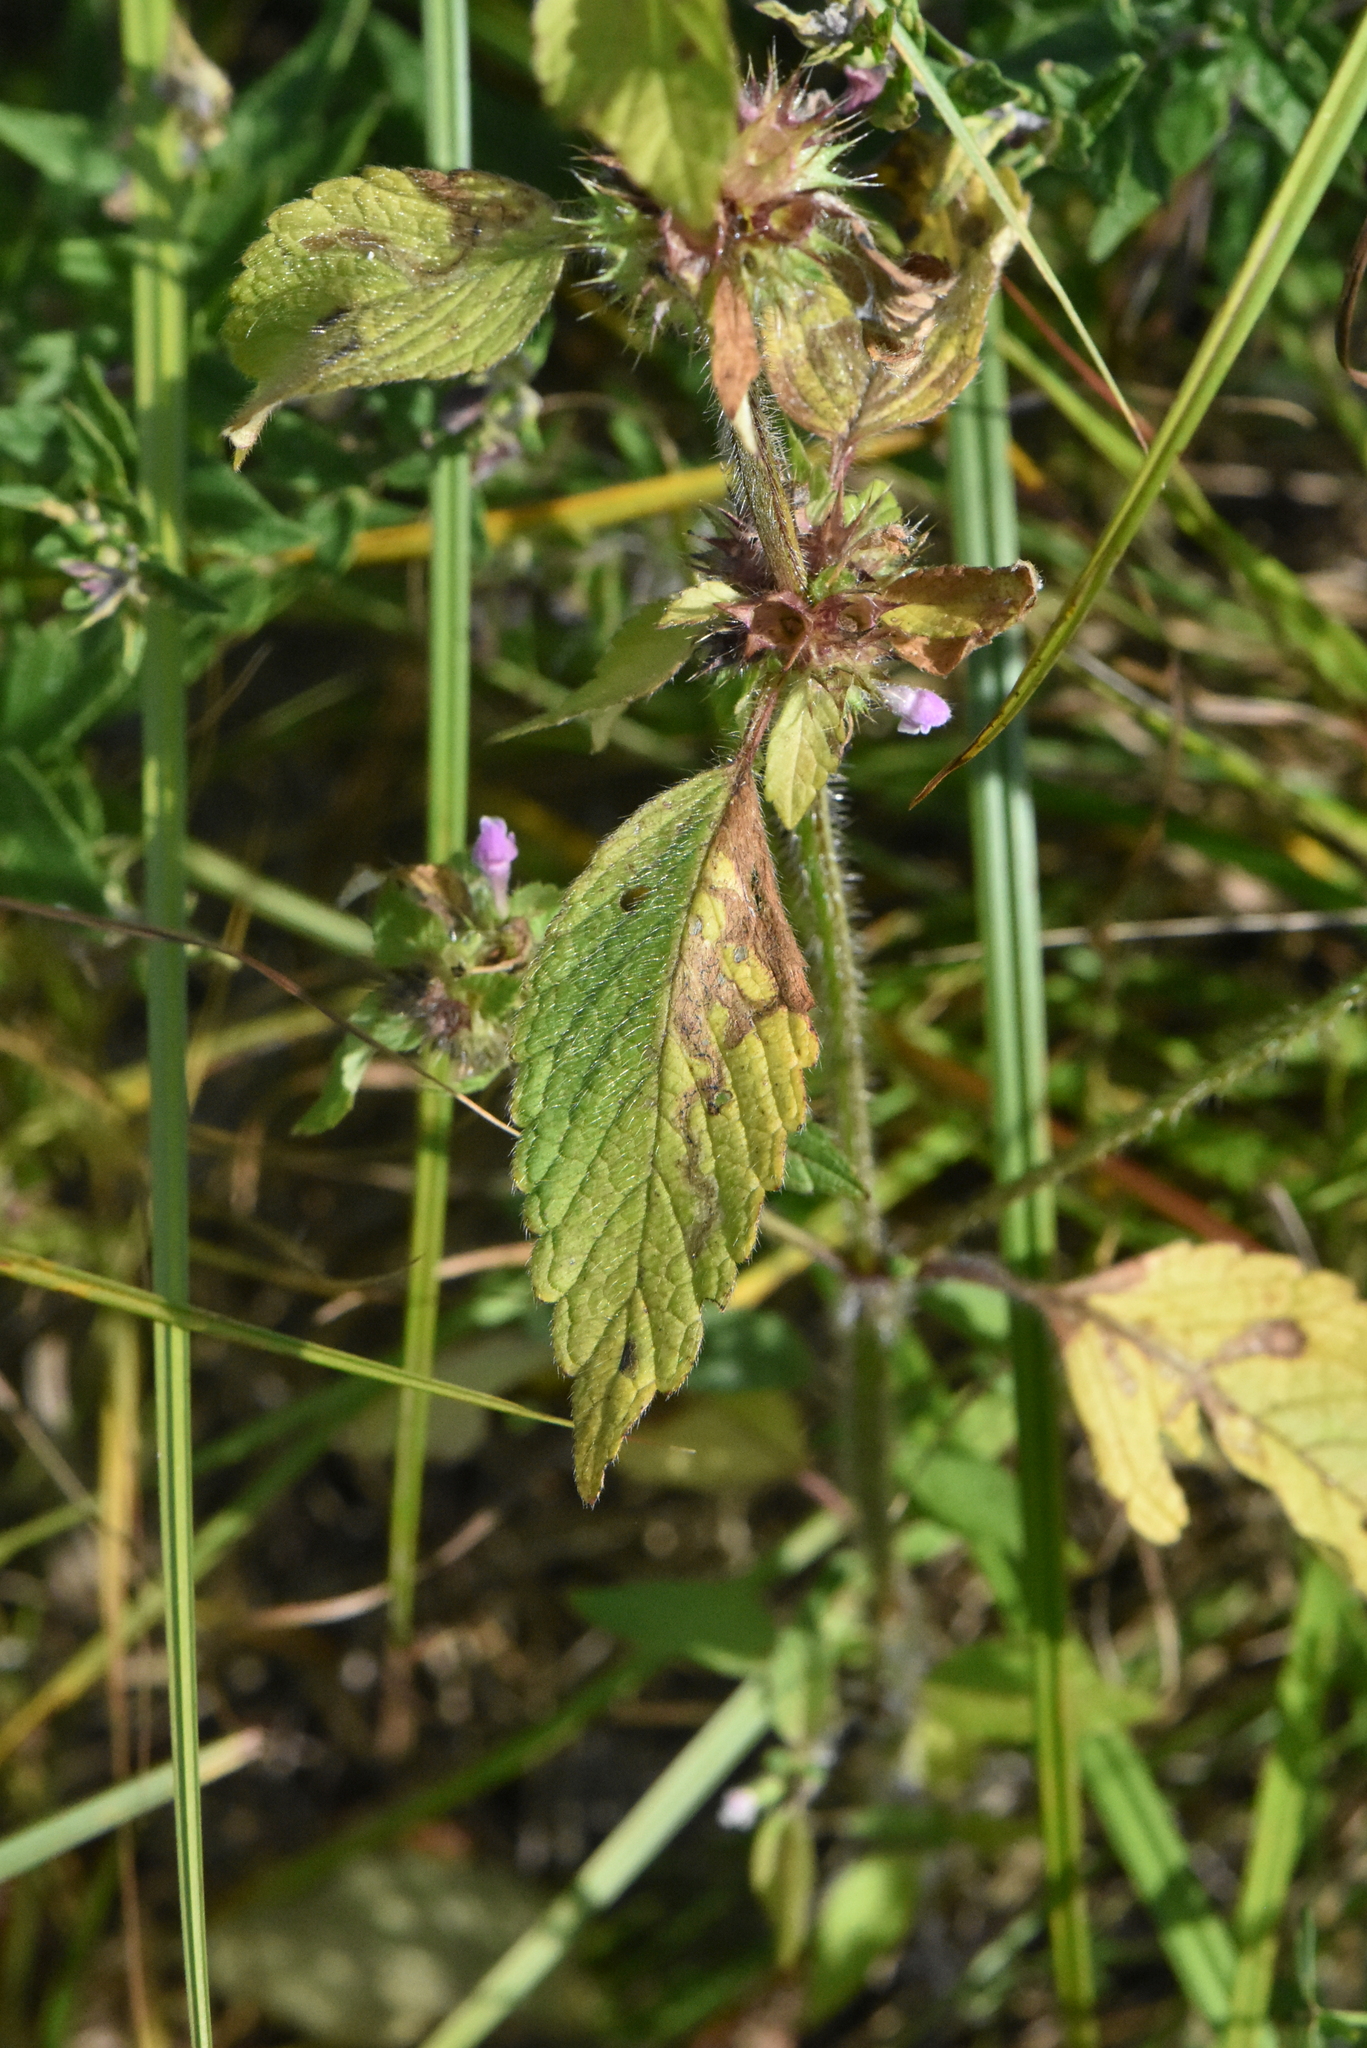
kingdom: Plantae
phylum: Tracheophyta
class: Magnoliopsida
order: Lamiales
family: Lamiaceae
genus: Galeopsis
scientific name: Galeopsis bifida
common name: Bifid hemp-nettle
